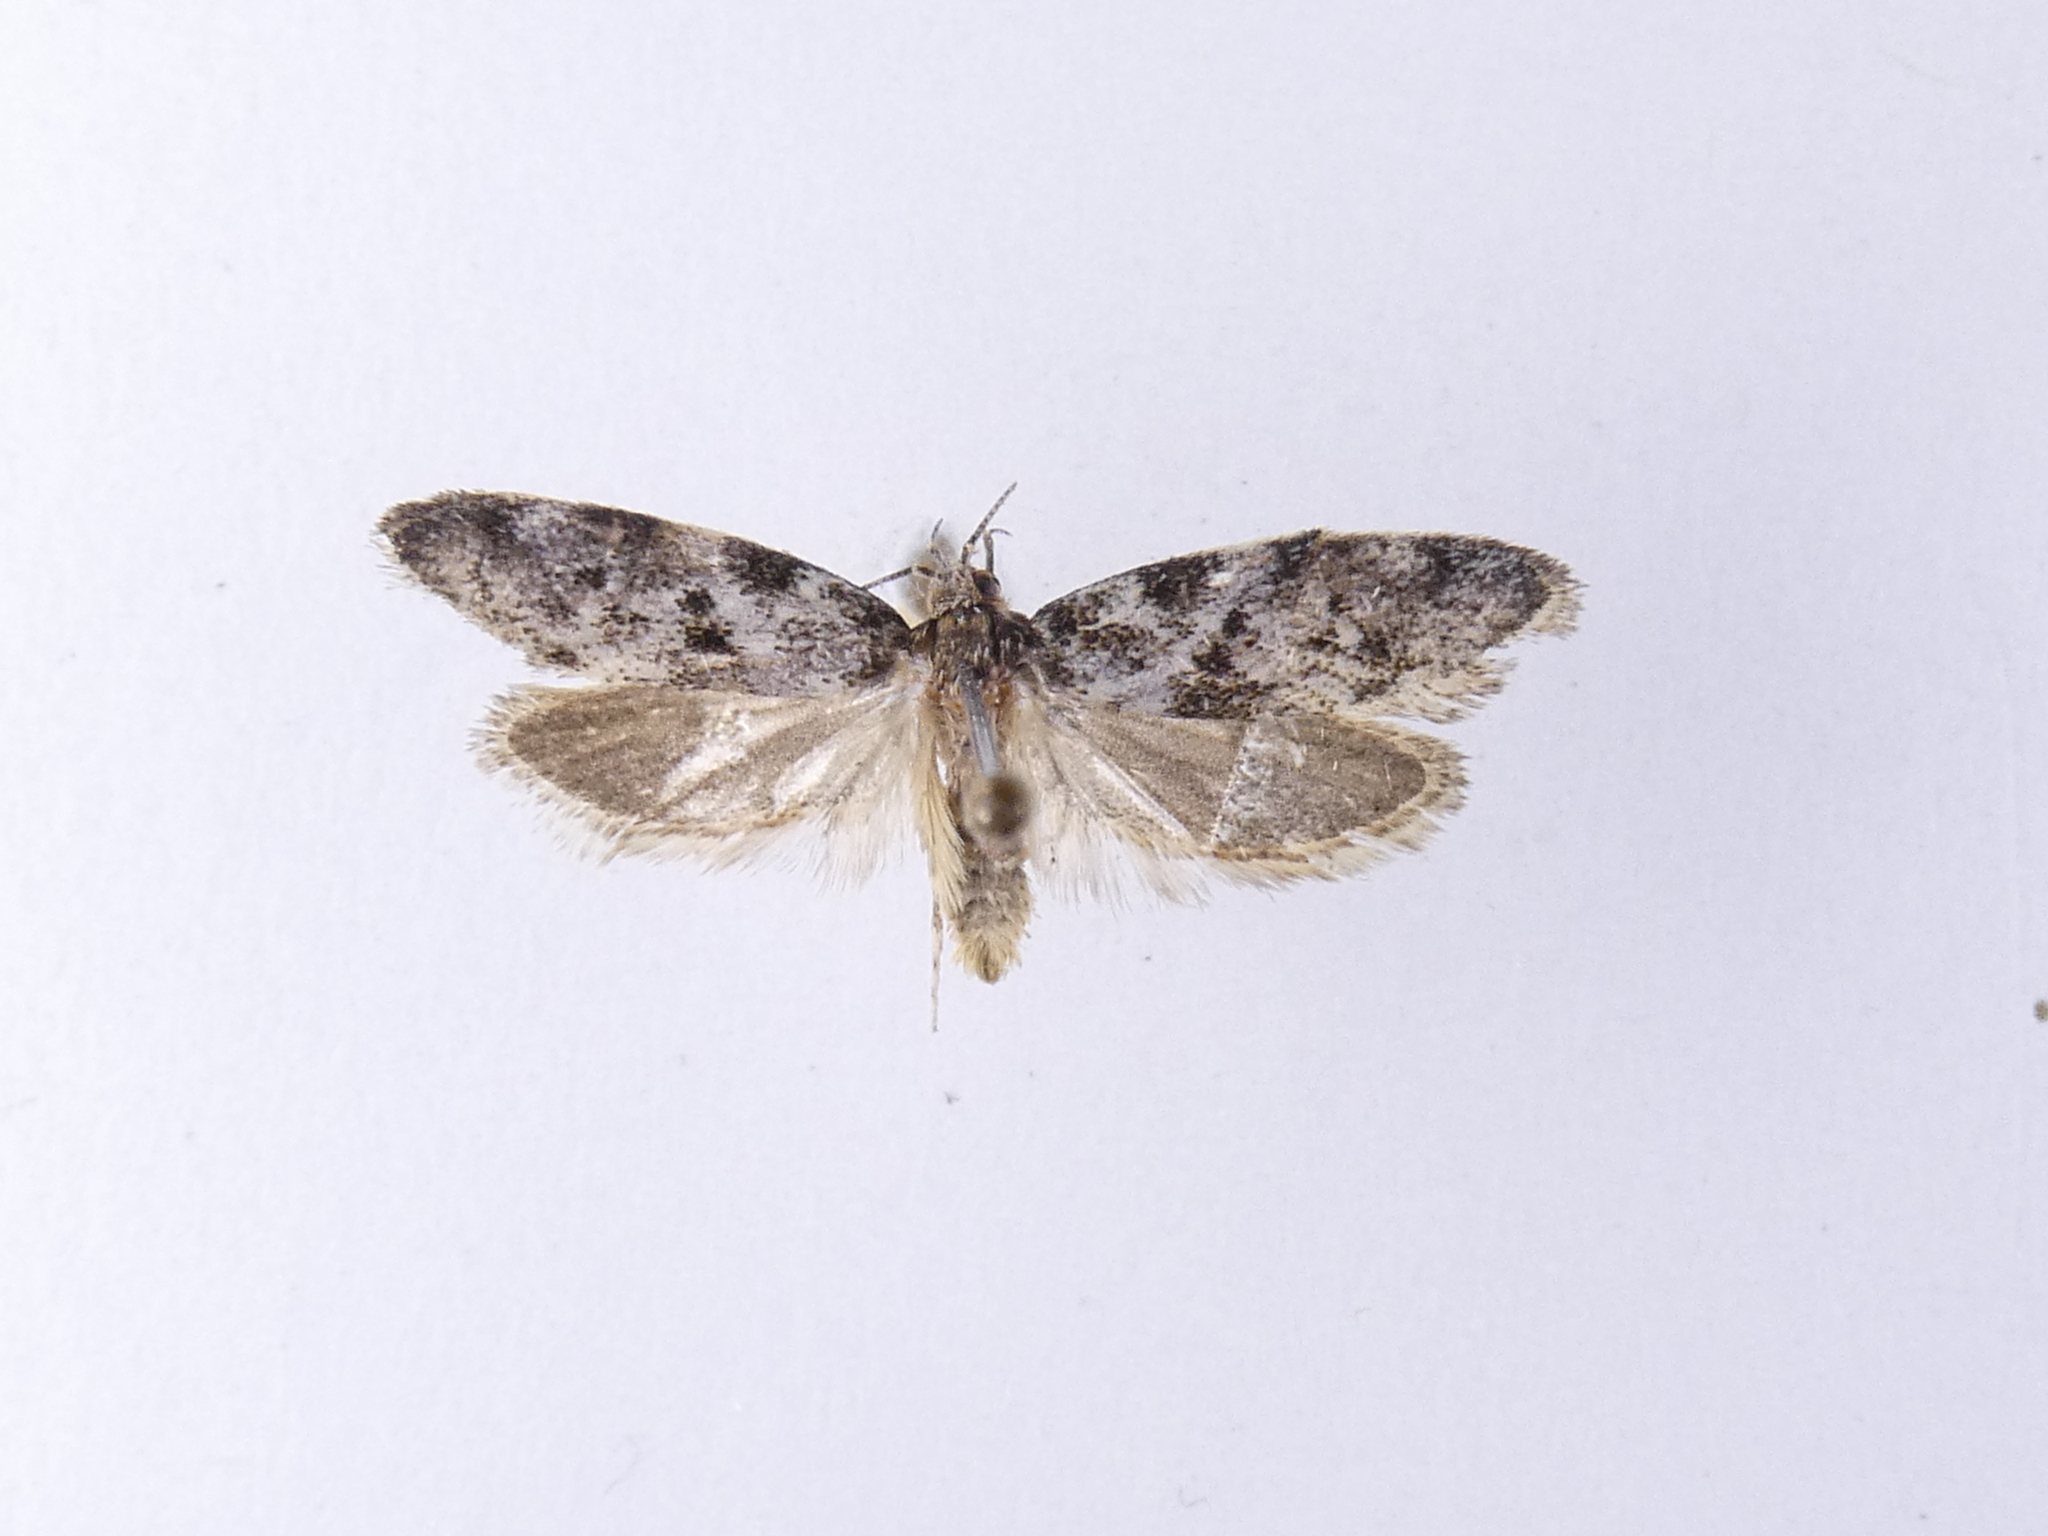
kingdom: Animalia
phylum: Arthropoda
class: Insecta
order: Lepidoptera
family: Oecophoridae
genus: Trachypepla
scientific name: Trachypepla photinella
